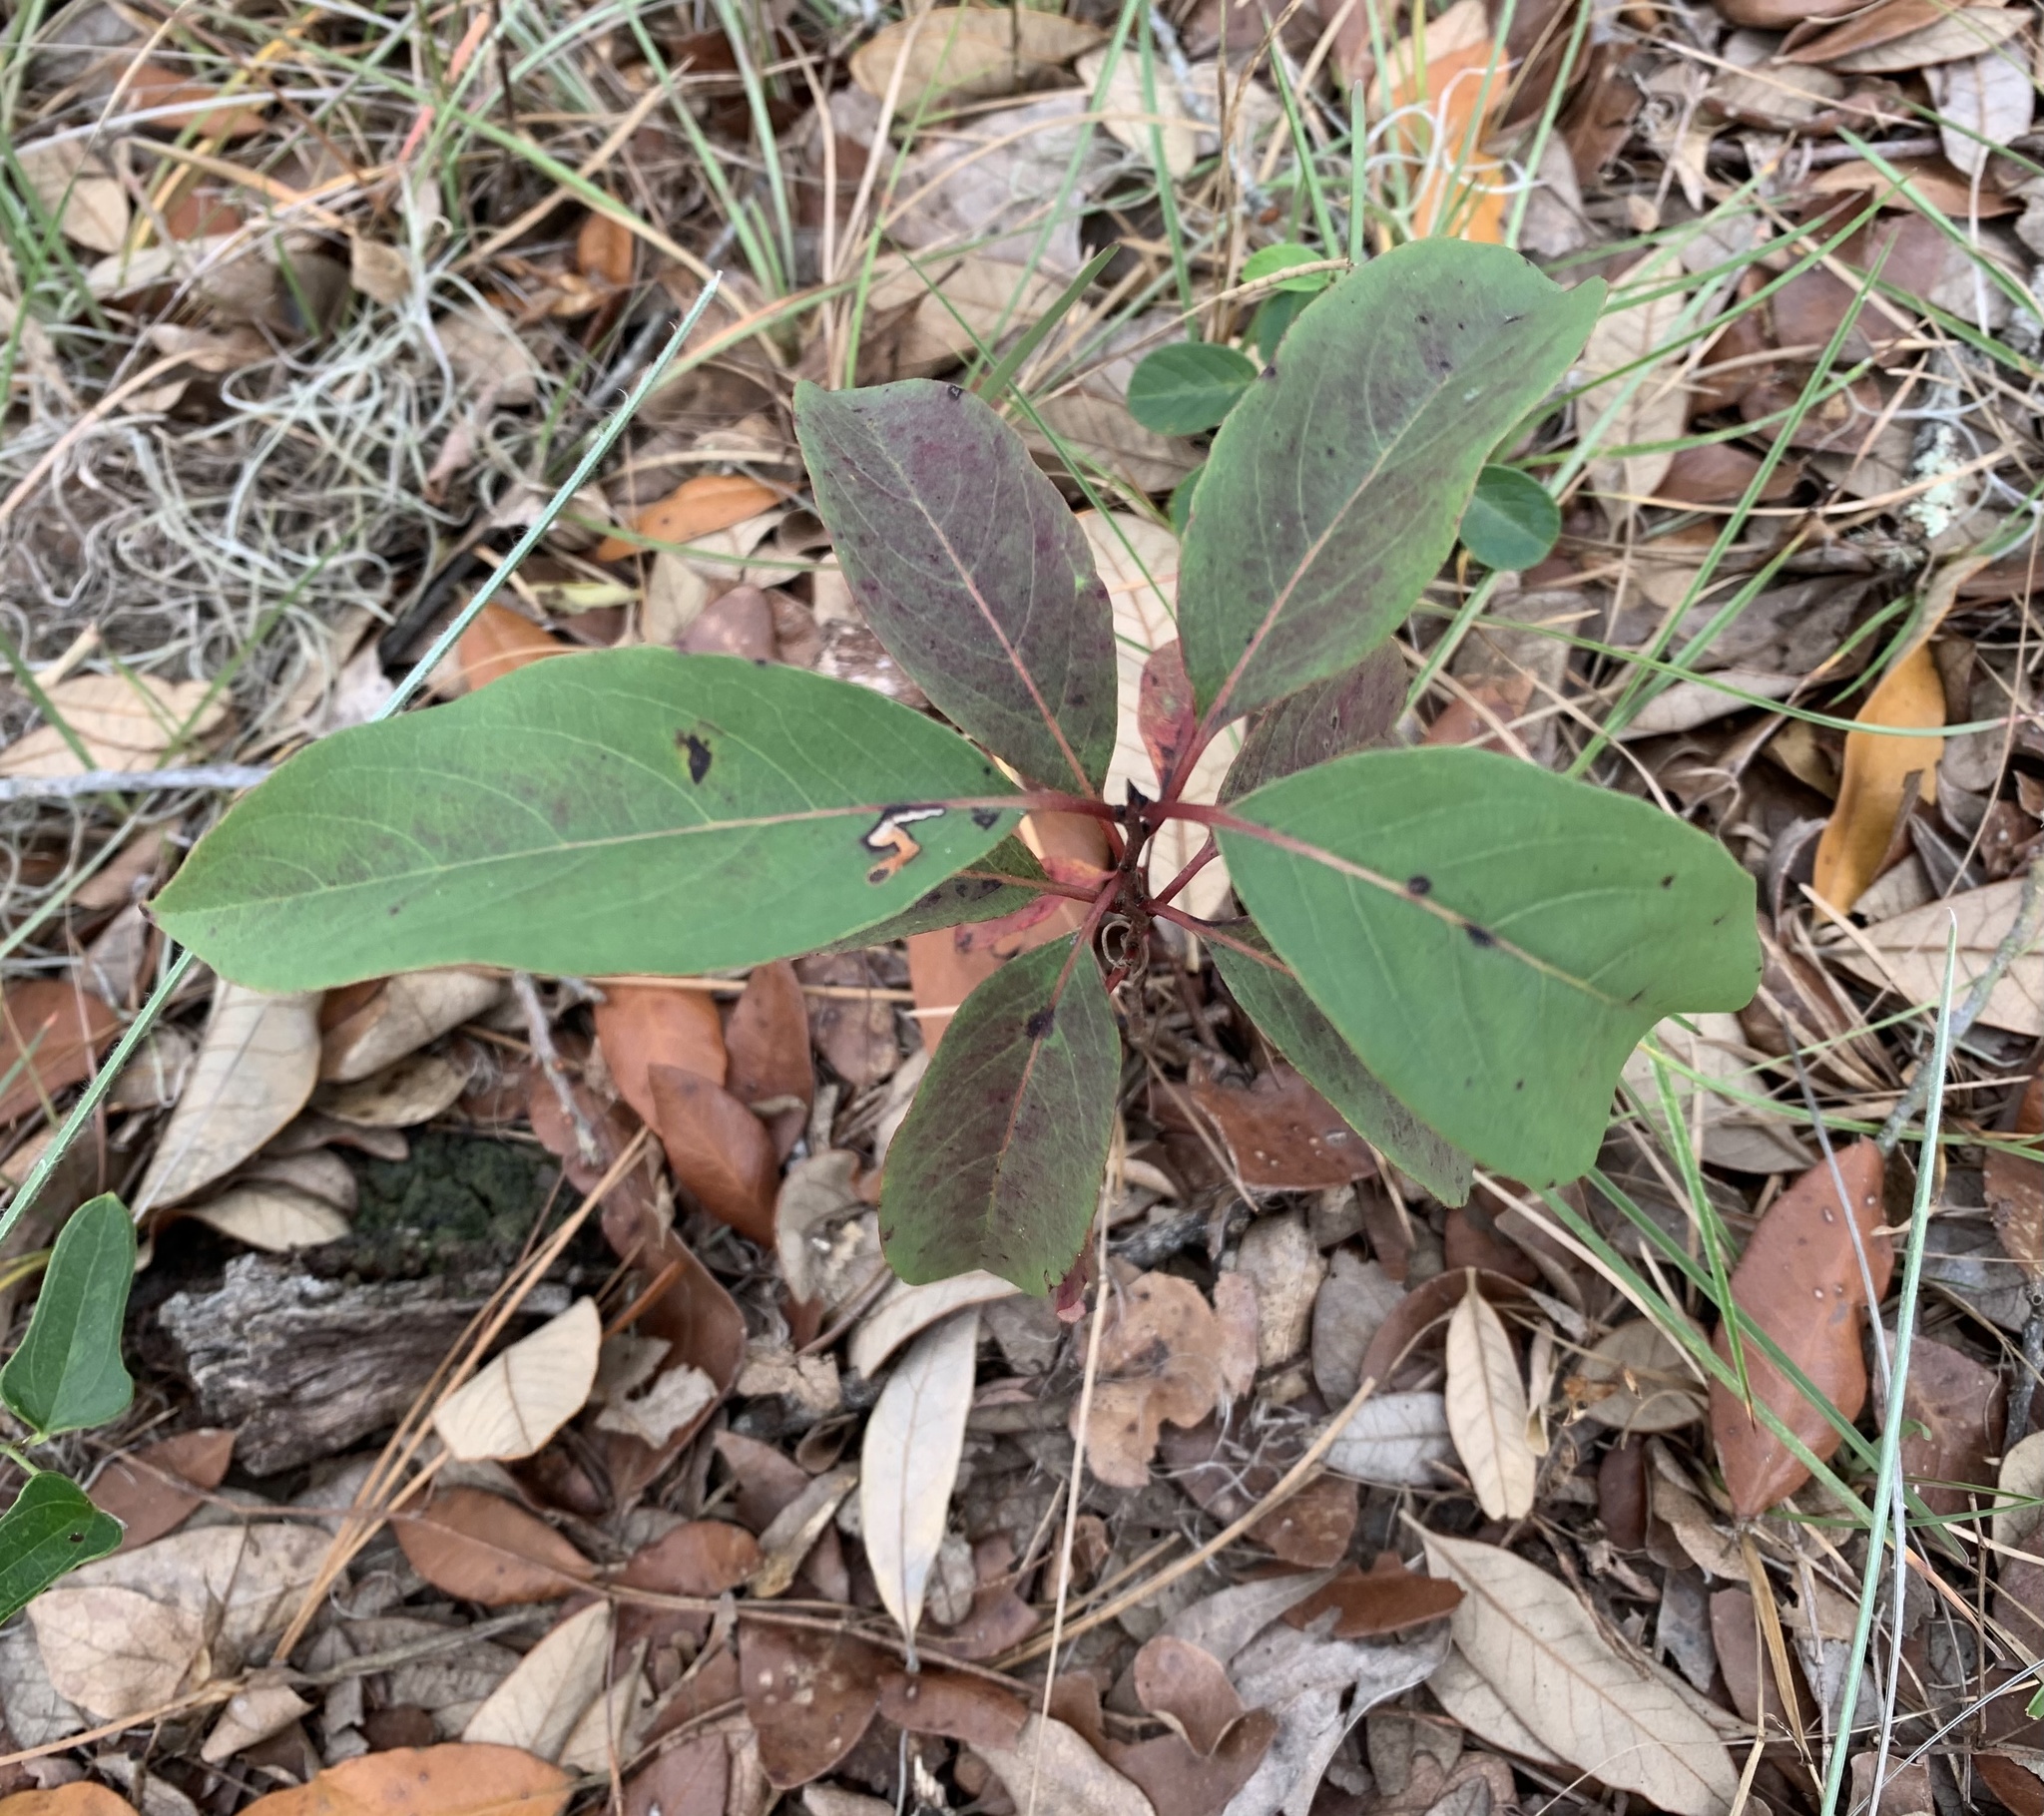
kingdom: Plantae
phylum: Tracheophyta
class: Magnoliopsida
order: Ericales
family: Ebenaceae
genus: Diospyros
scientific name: Diospyros virginiana
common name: Persimmon
